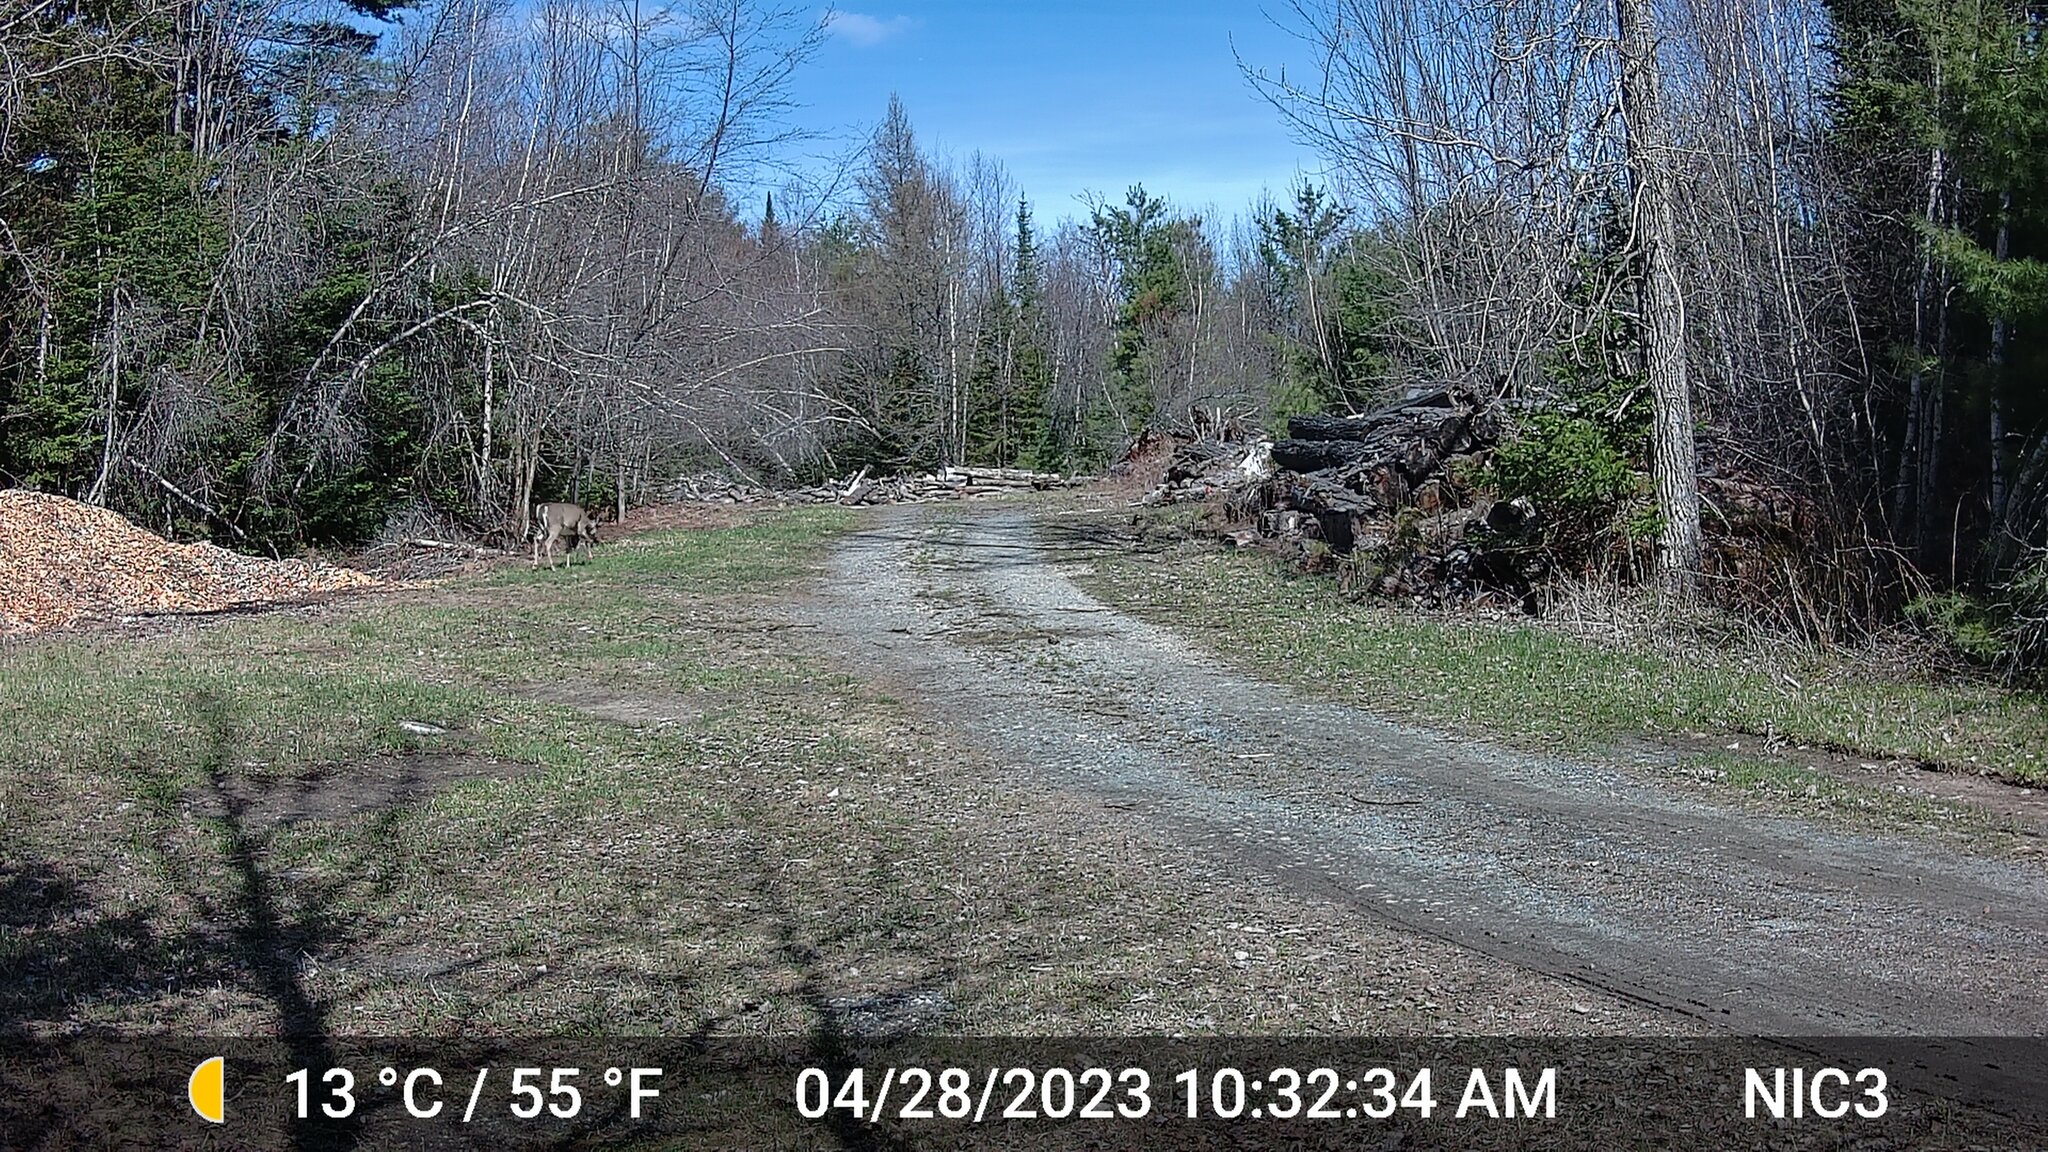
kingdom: Animalia
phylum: Chordata
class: Mammalia
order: Artiodactyla
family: Cervidae
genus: Odocoileus
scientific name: Odocoileus virginianus
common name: White-tailed deer
